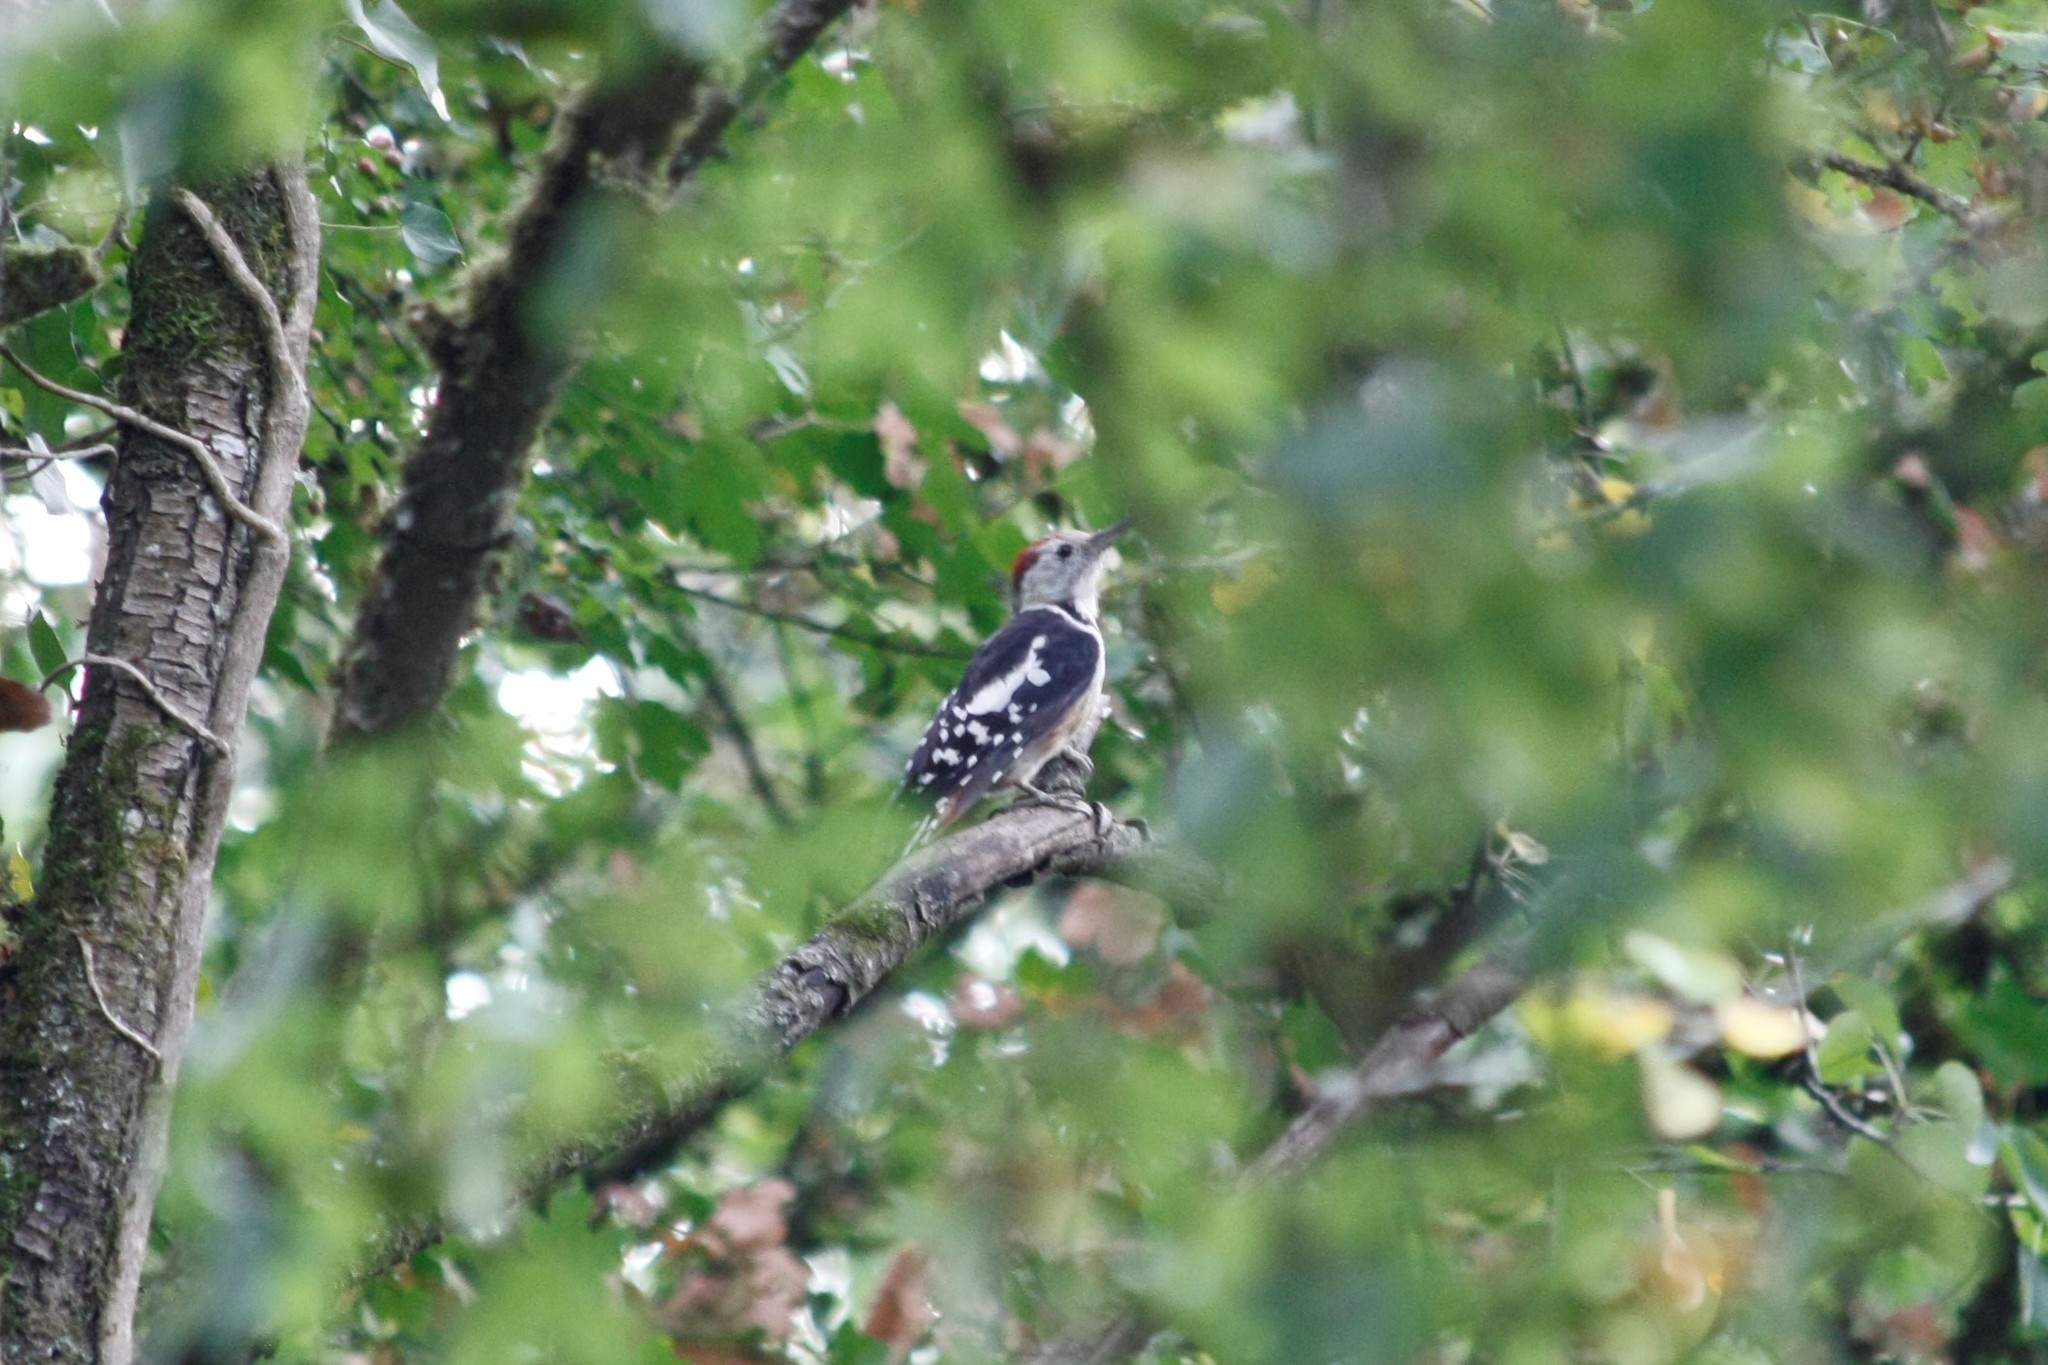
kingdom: Animalia
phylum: Chordata
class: Aves
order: Piciformes
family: Picidae
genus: Dendrocoptes
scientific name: Dendrocoptes medius
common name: Middle spotted woodpecker
